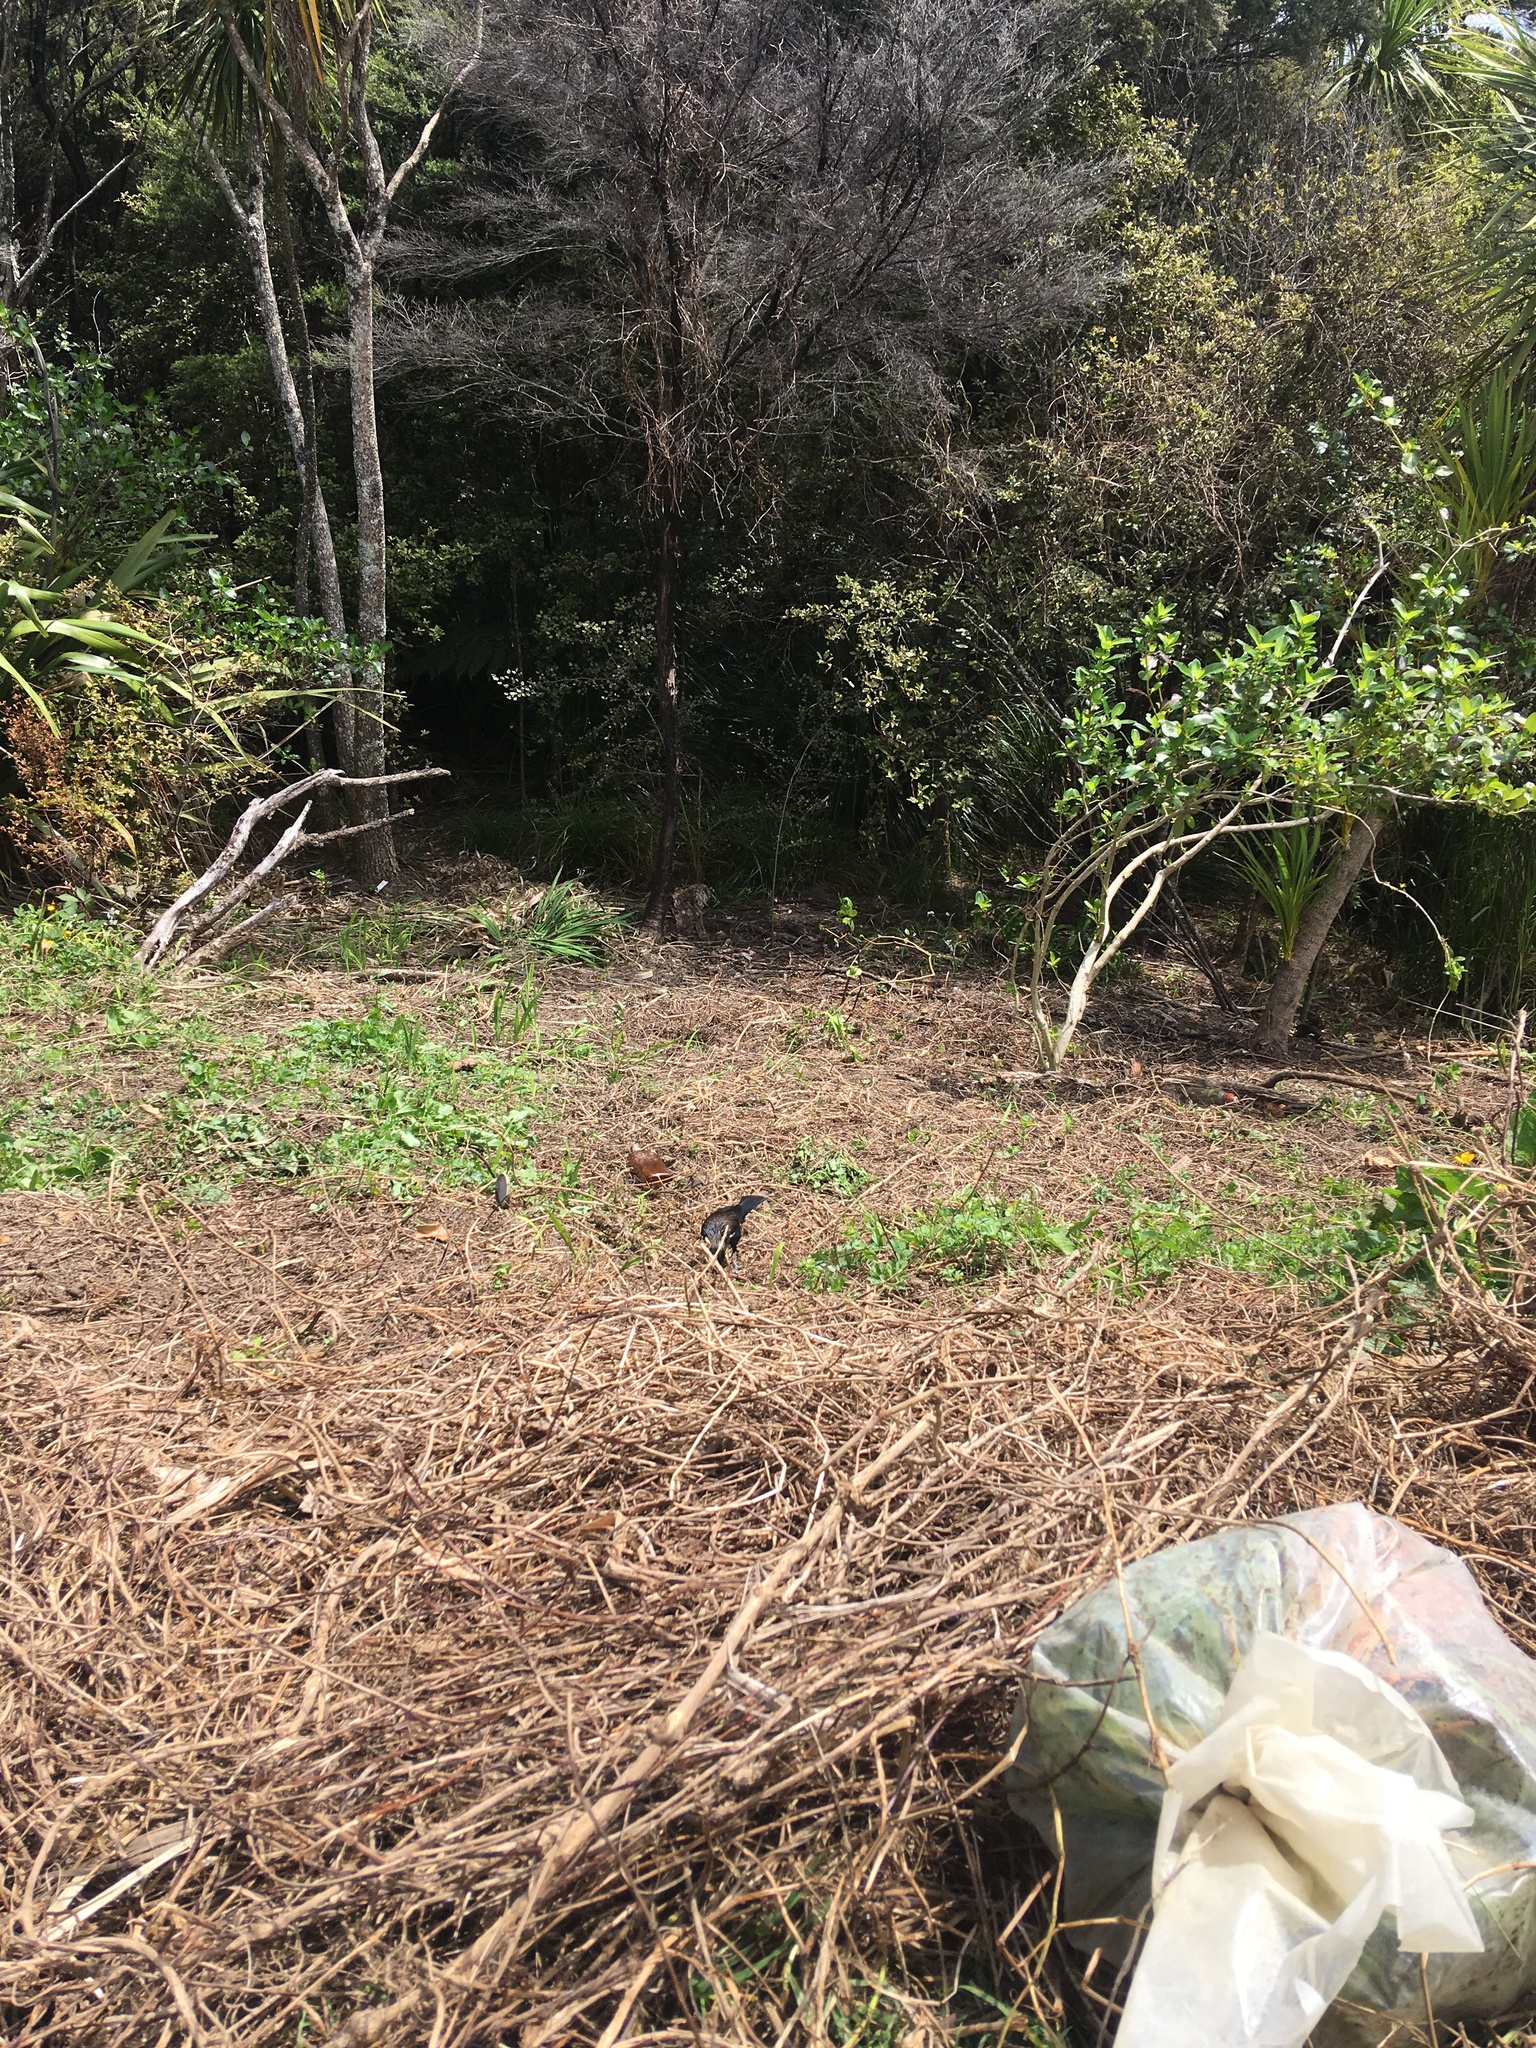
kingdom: Animalia
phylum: Chordata
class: Aves
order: Passeriformes
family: Meliphagidae
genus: Prosthemadera
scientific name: Prosthemadera novaeseelandiae
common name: Tui
